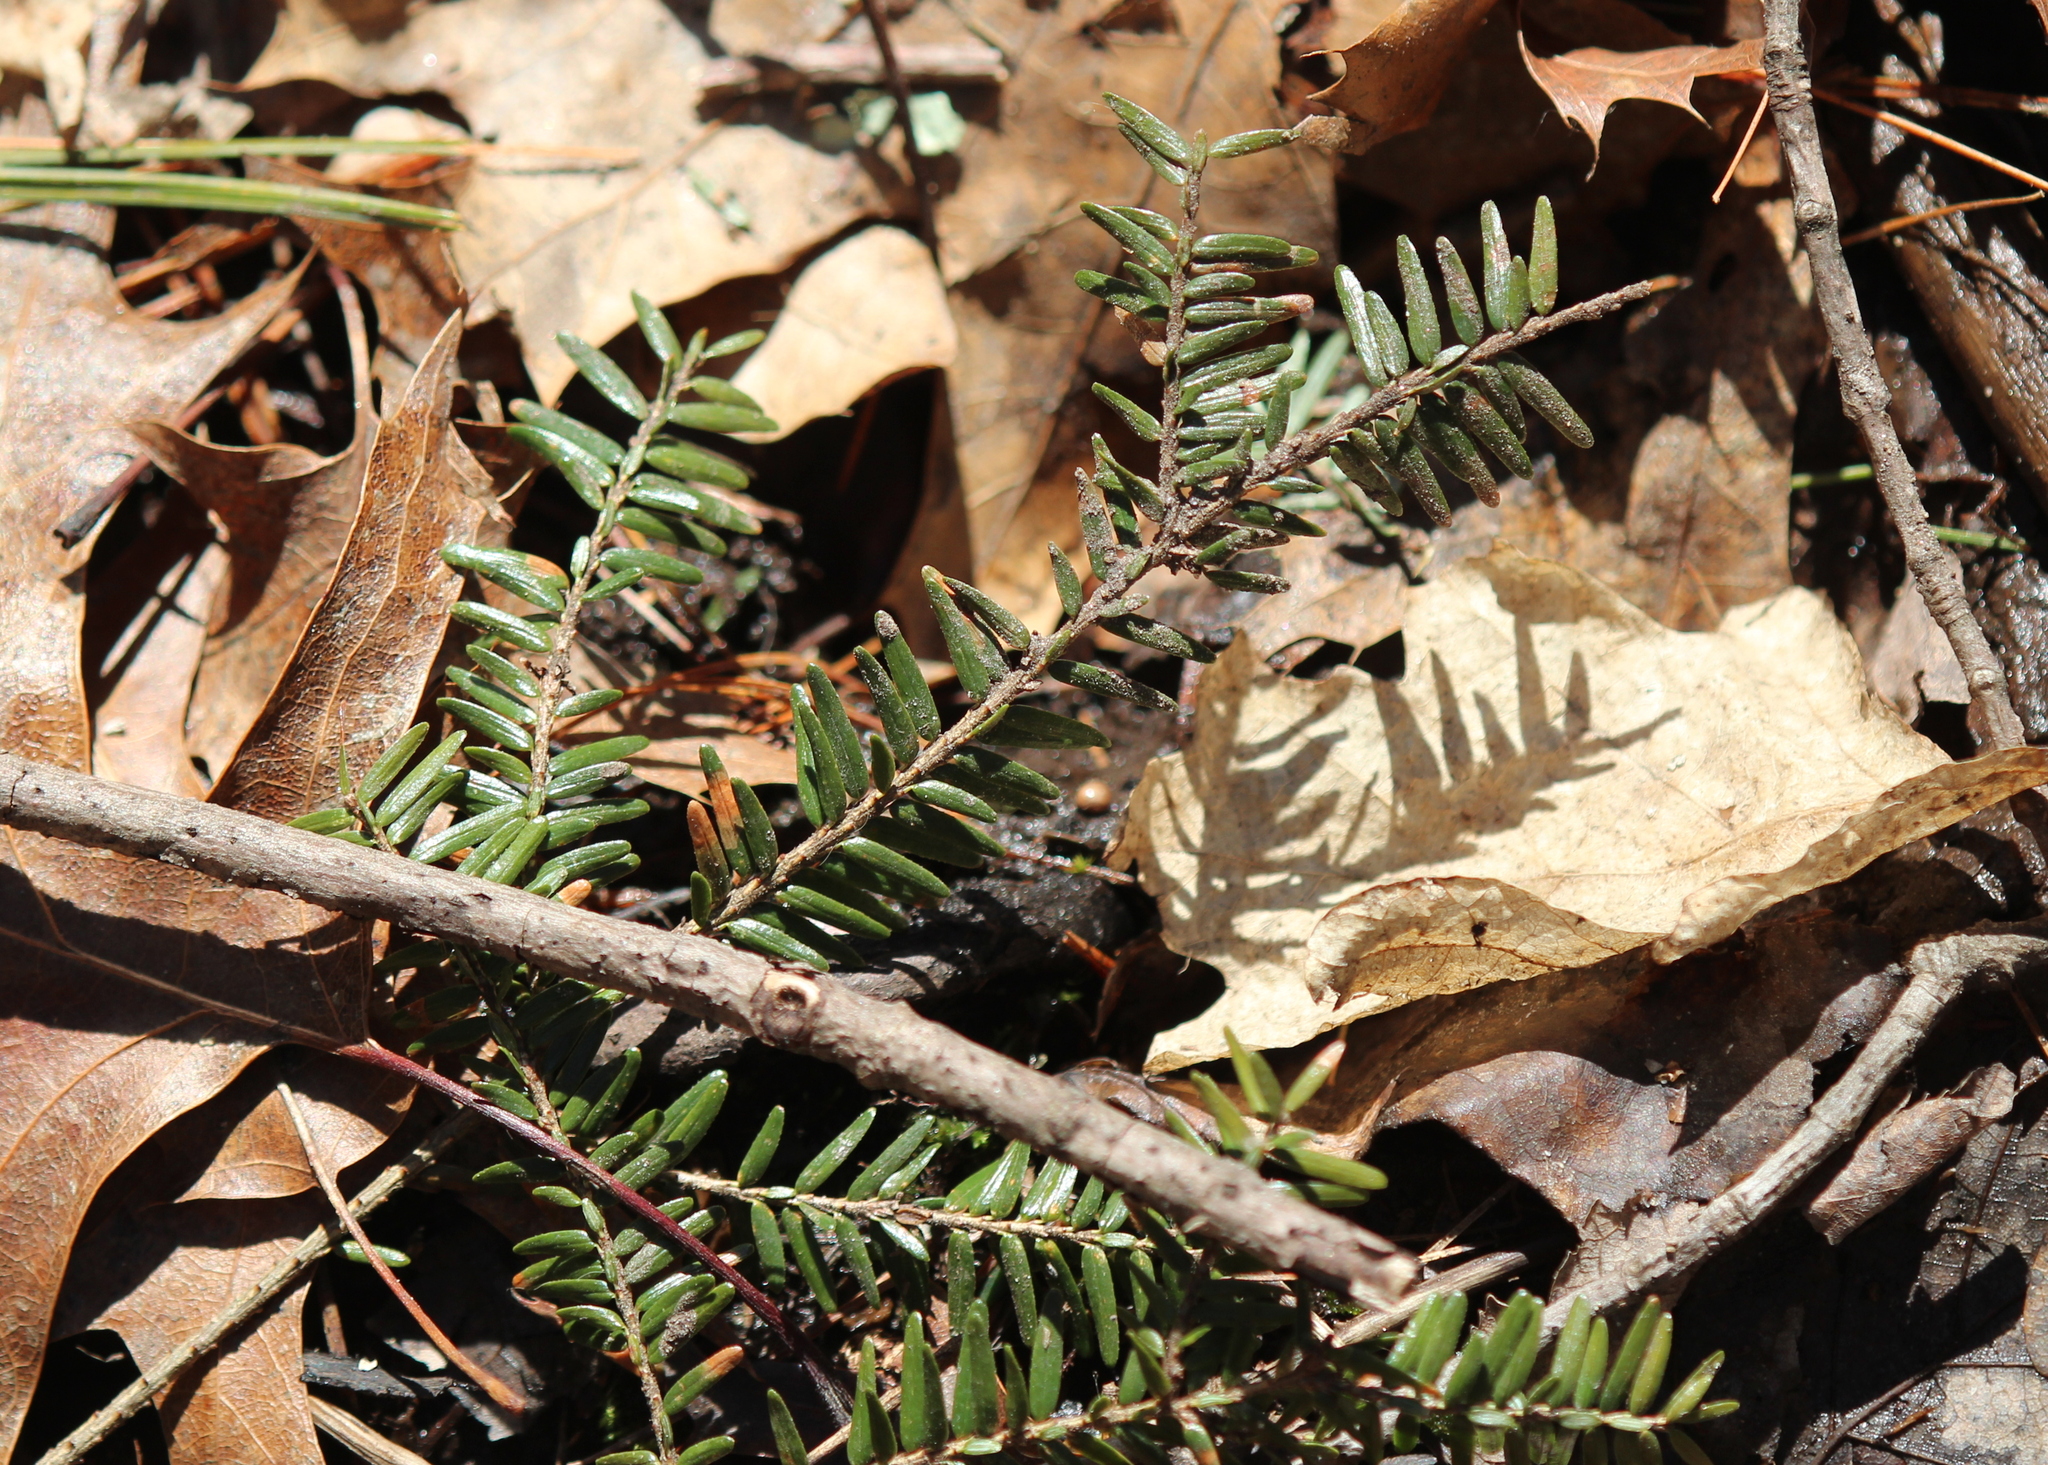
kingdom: Plantae
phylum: Tracheophyta
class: Pinopsida
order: Pinales
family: Pinaceae
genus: Tsuga
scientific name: Tsuga canadensis
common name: Eastern hemlock
